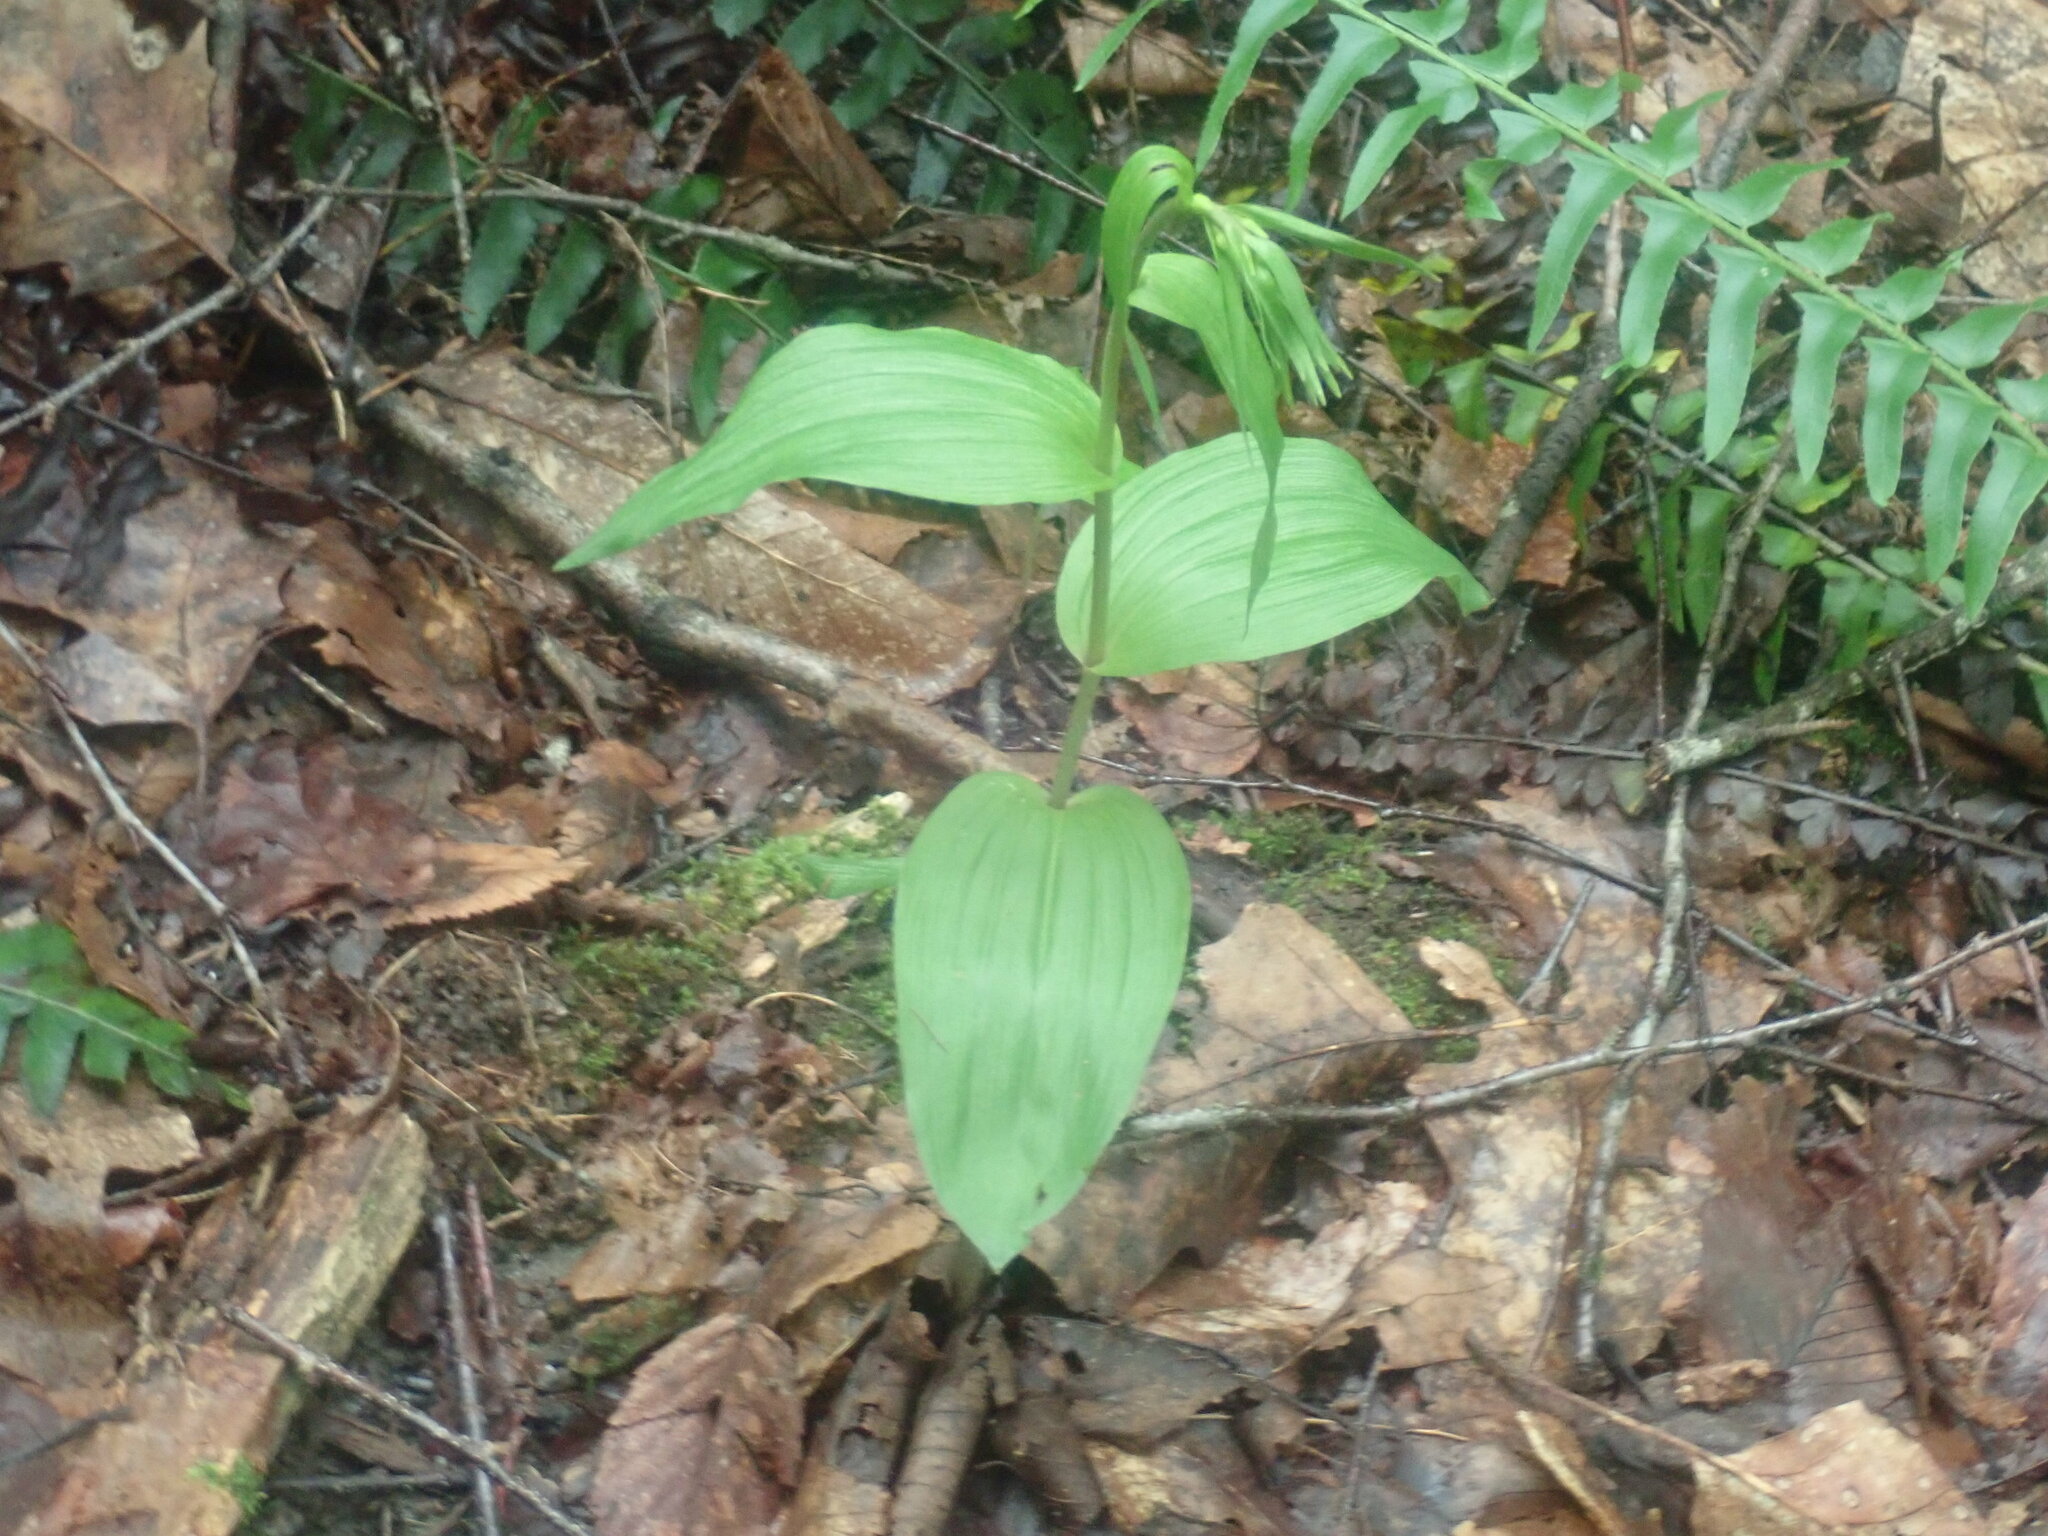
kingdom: Plantae
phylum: Tracheophyta
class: Liliopsida
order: Asparagales
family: Orchidaceae
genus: Epipactis
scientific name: Epipactis helleborine
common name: Broad-leaved helleborine
